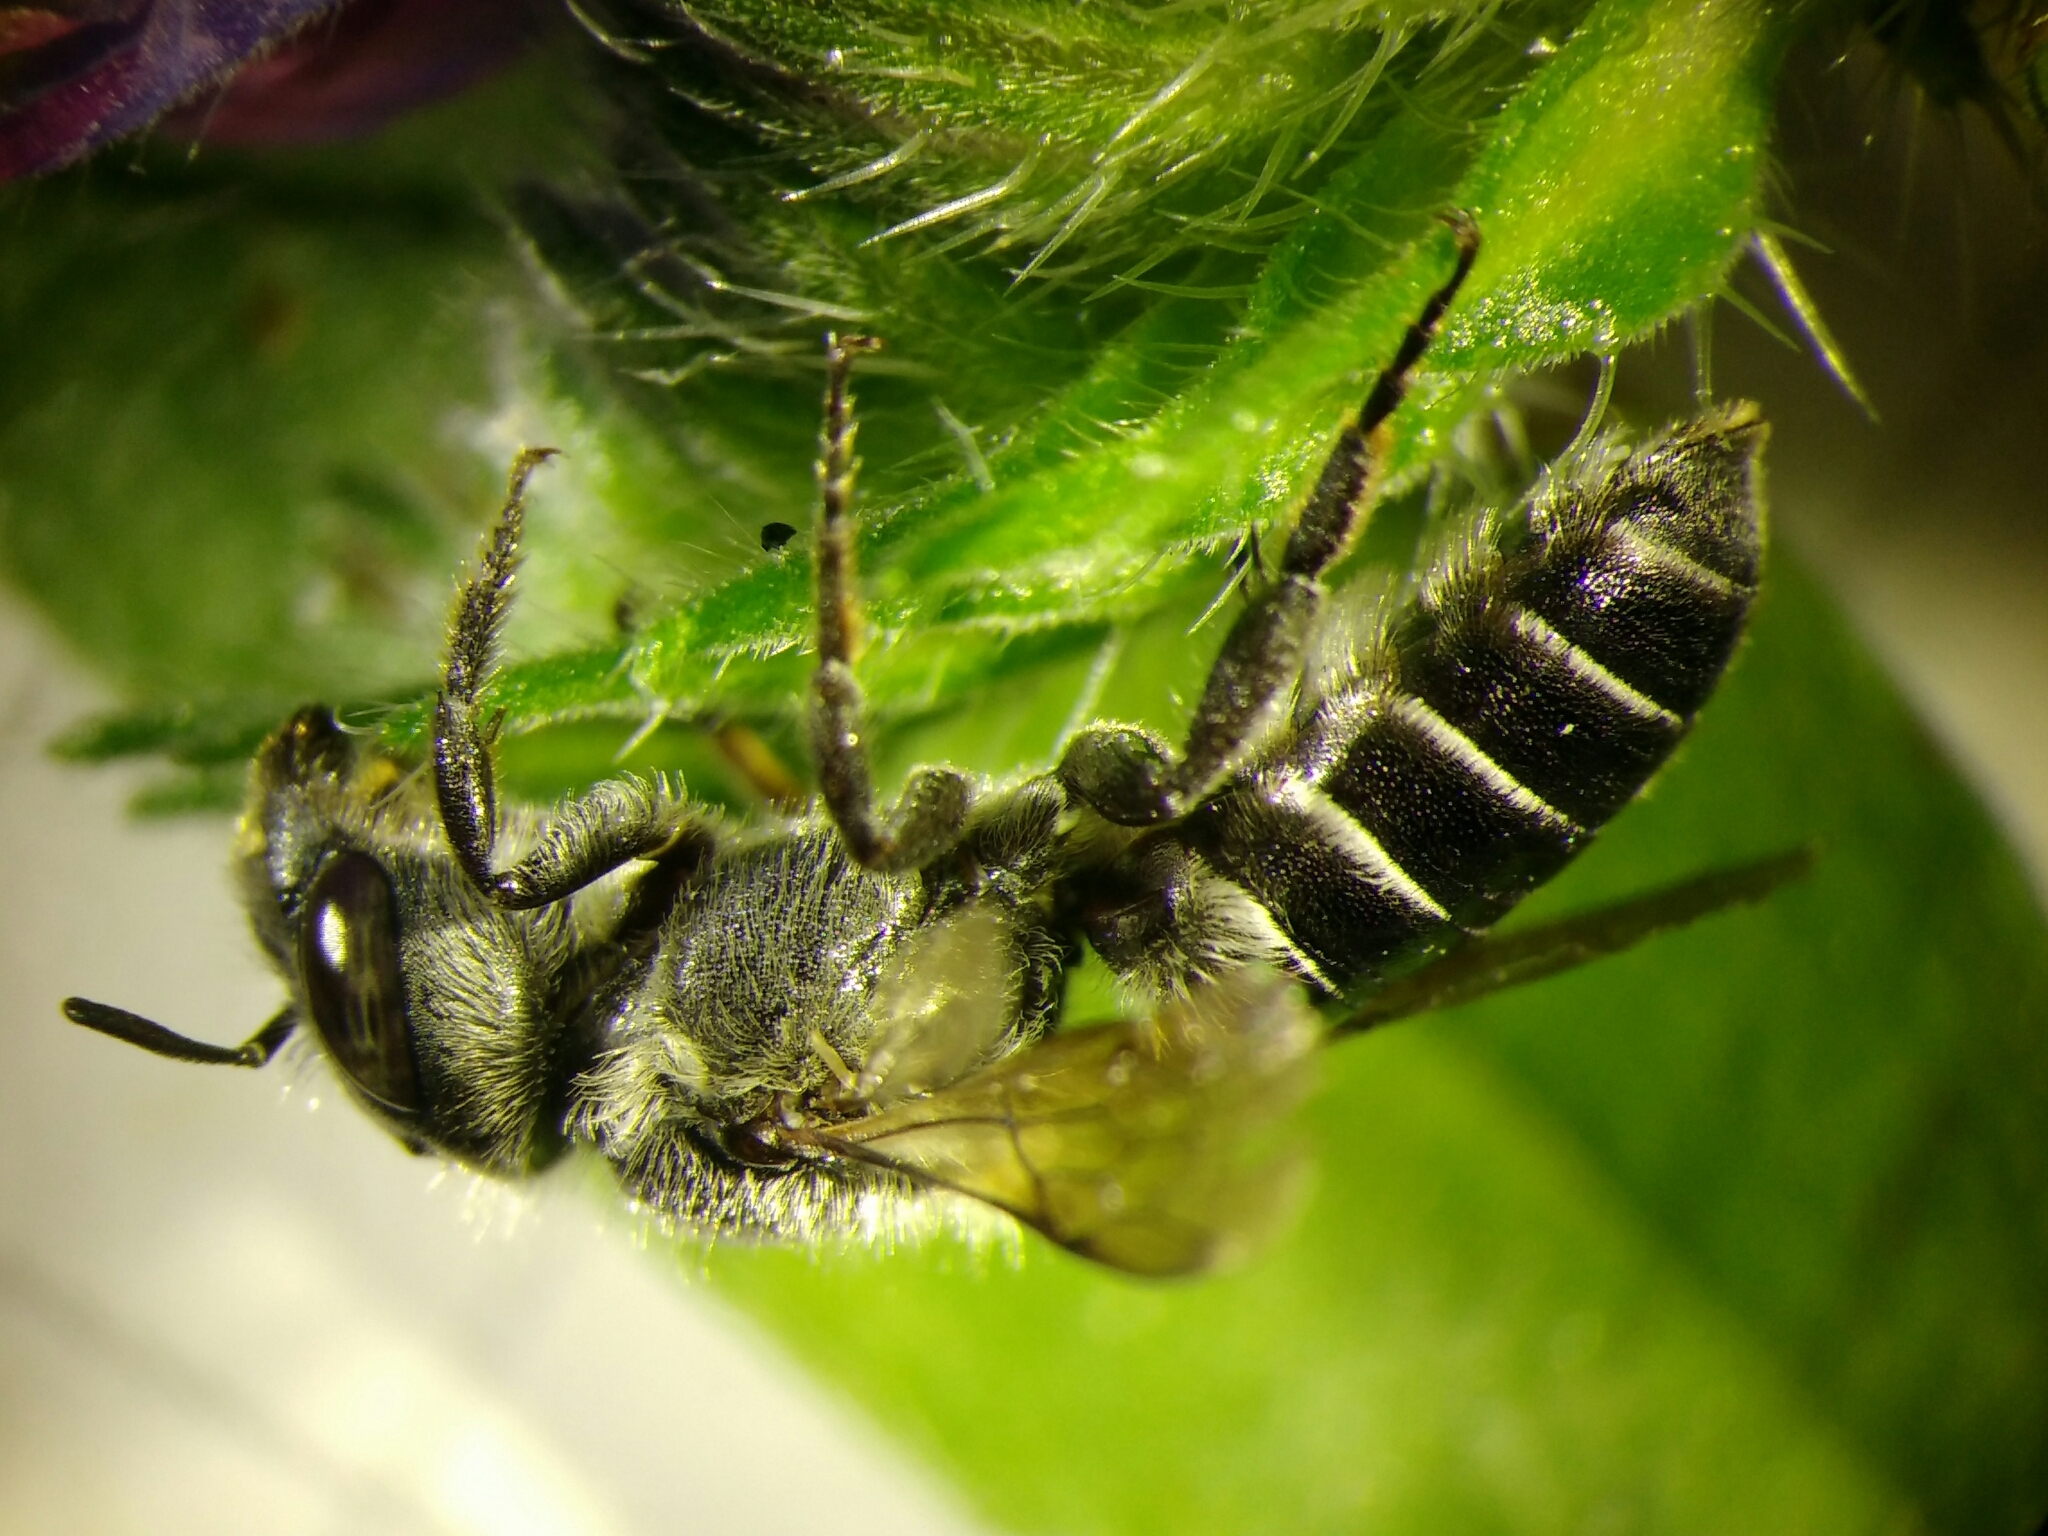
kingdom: Animalia
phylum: Arthropoda
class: Insecta
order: Hymenoptera
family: Megachilidae
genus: Hoplitis
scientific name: Hoplitis
